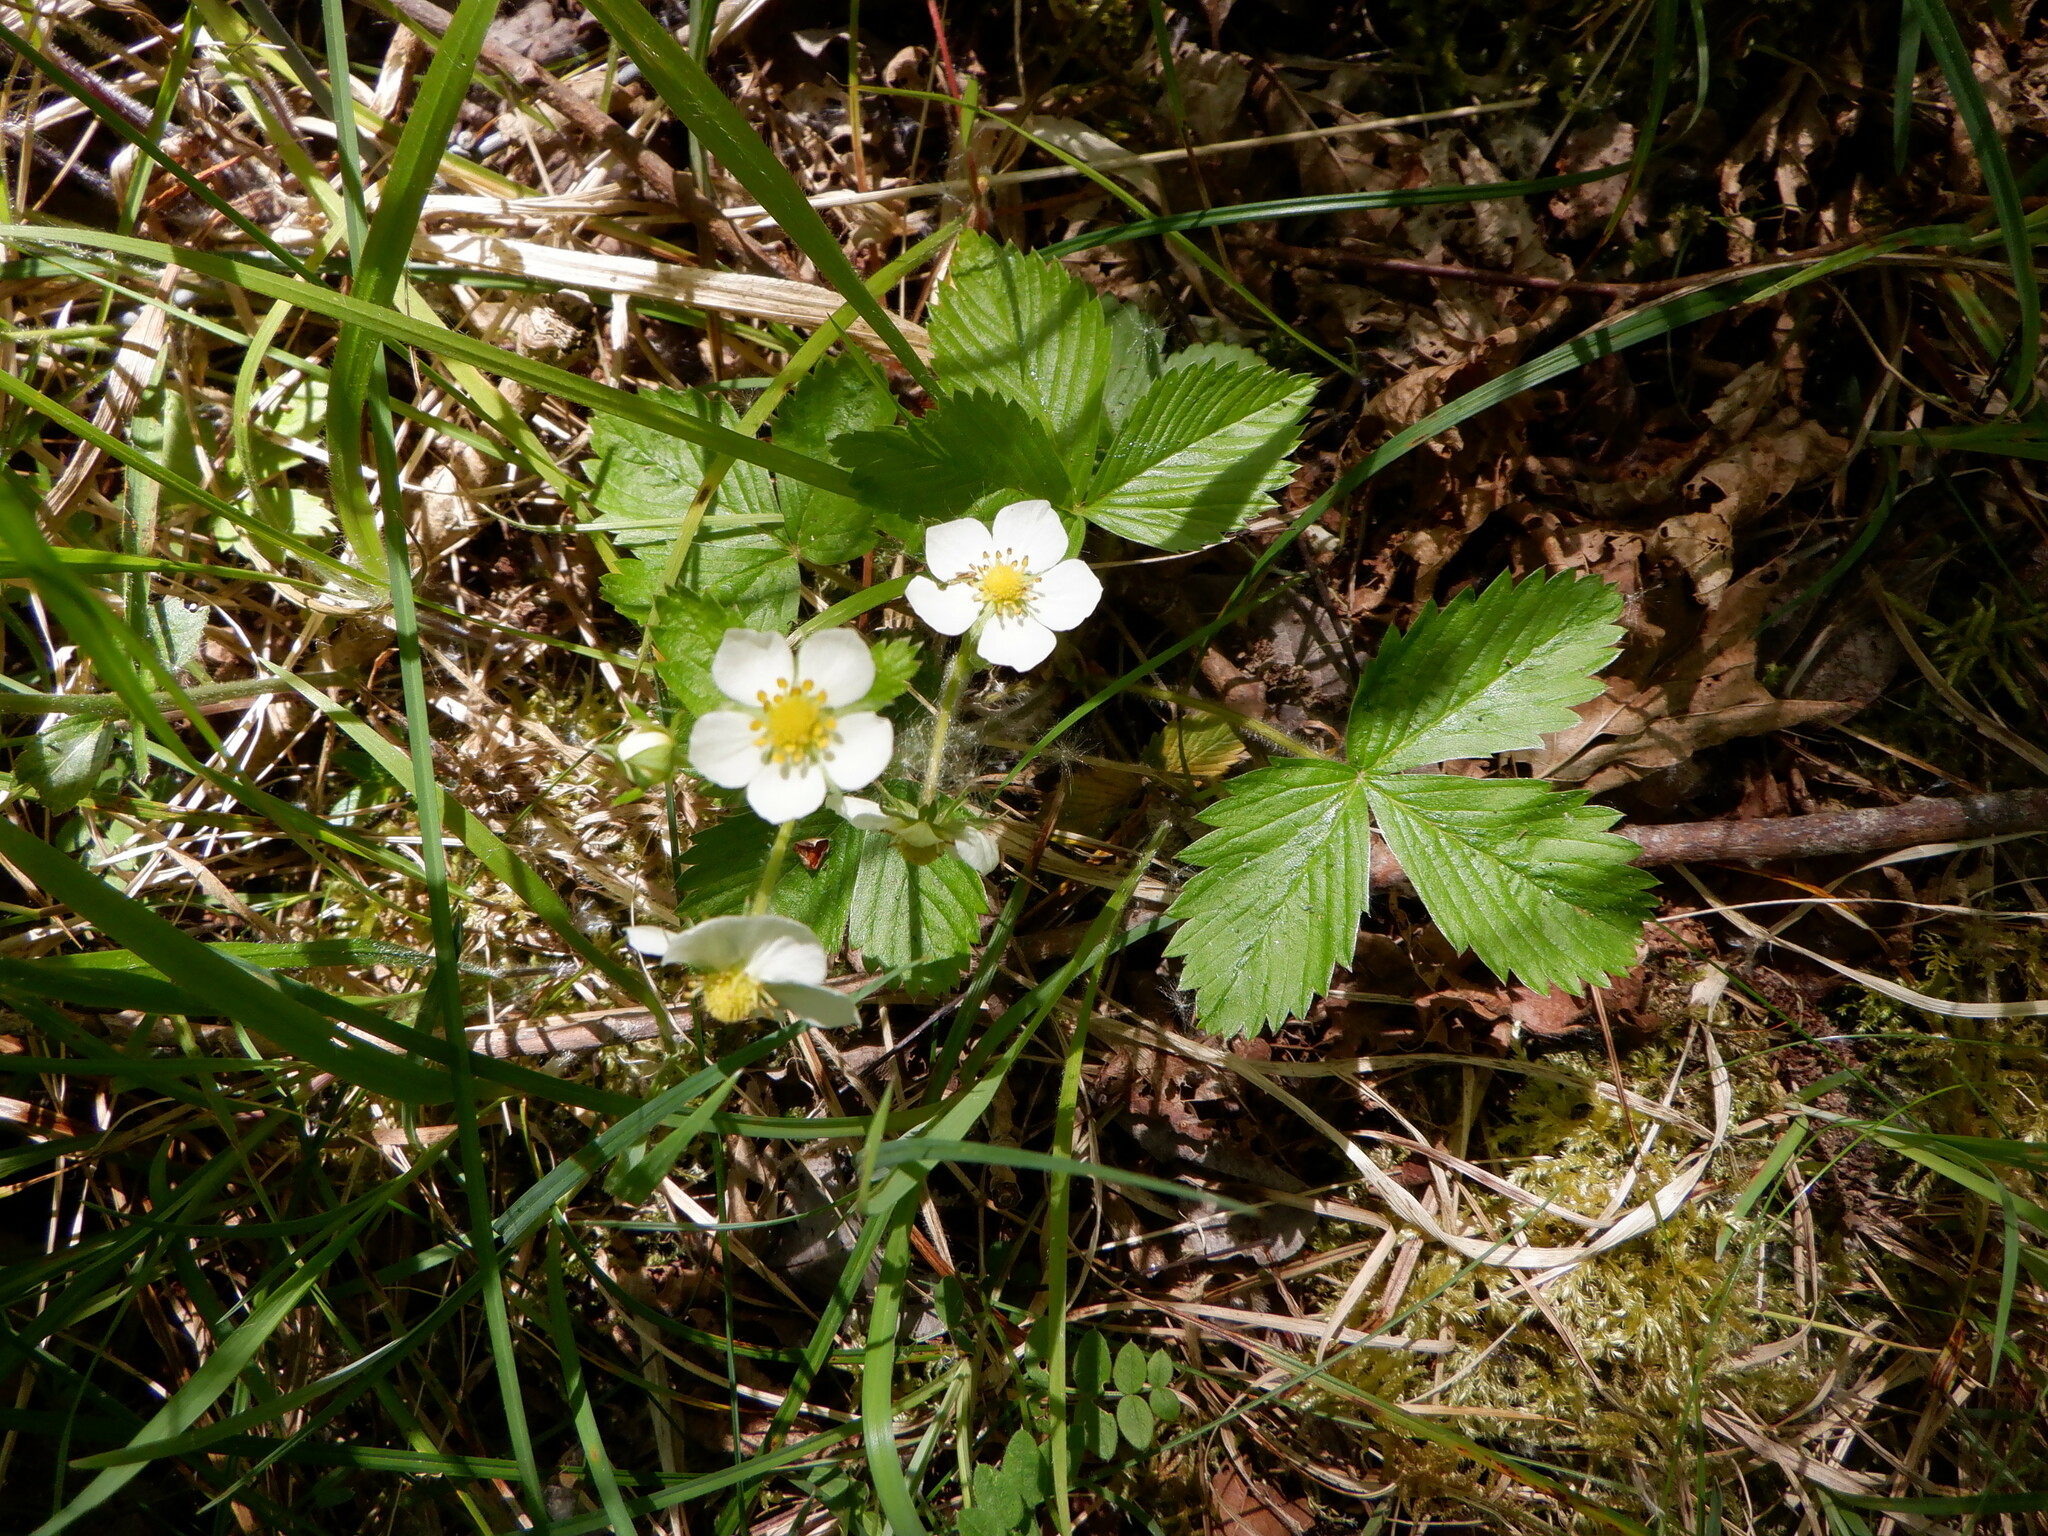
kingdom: Plantae
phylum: Tracheophyta
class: Magnoliopsida
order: Rosales
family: Rosaceae
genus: Fragaria
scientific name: Fragaria vesca
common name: Wild strawberry
